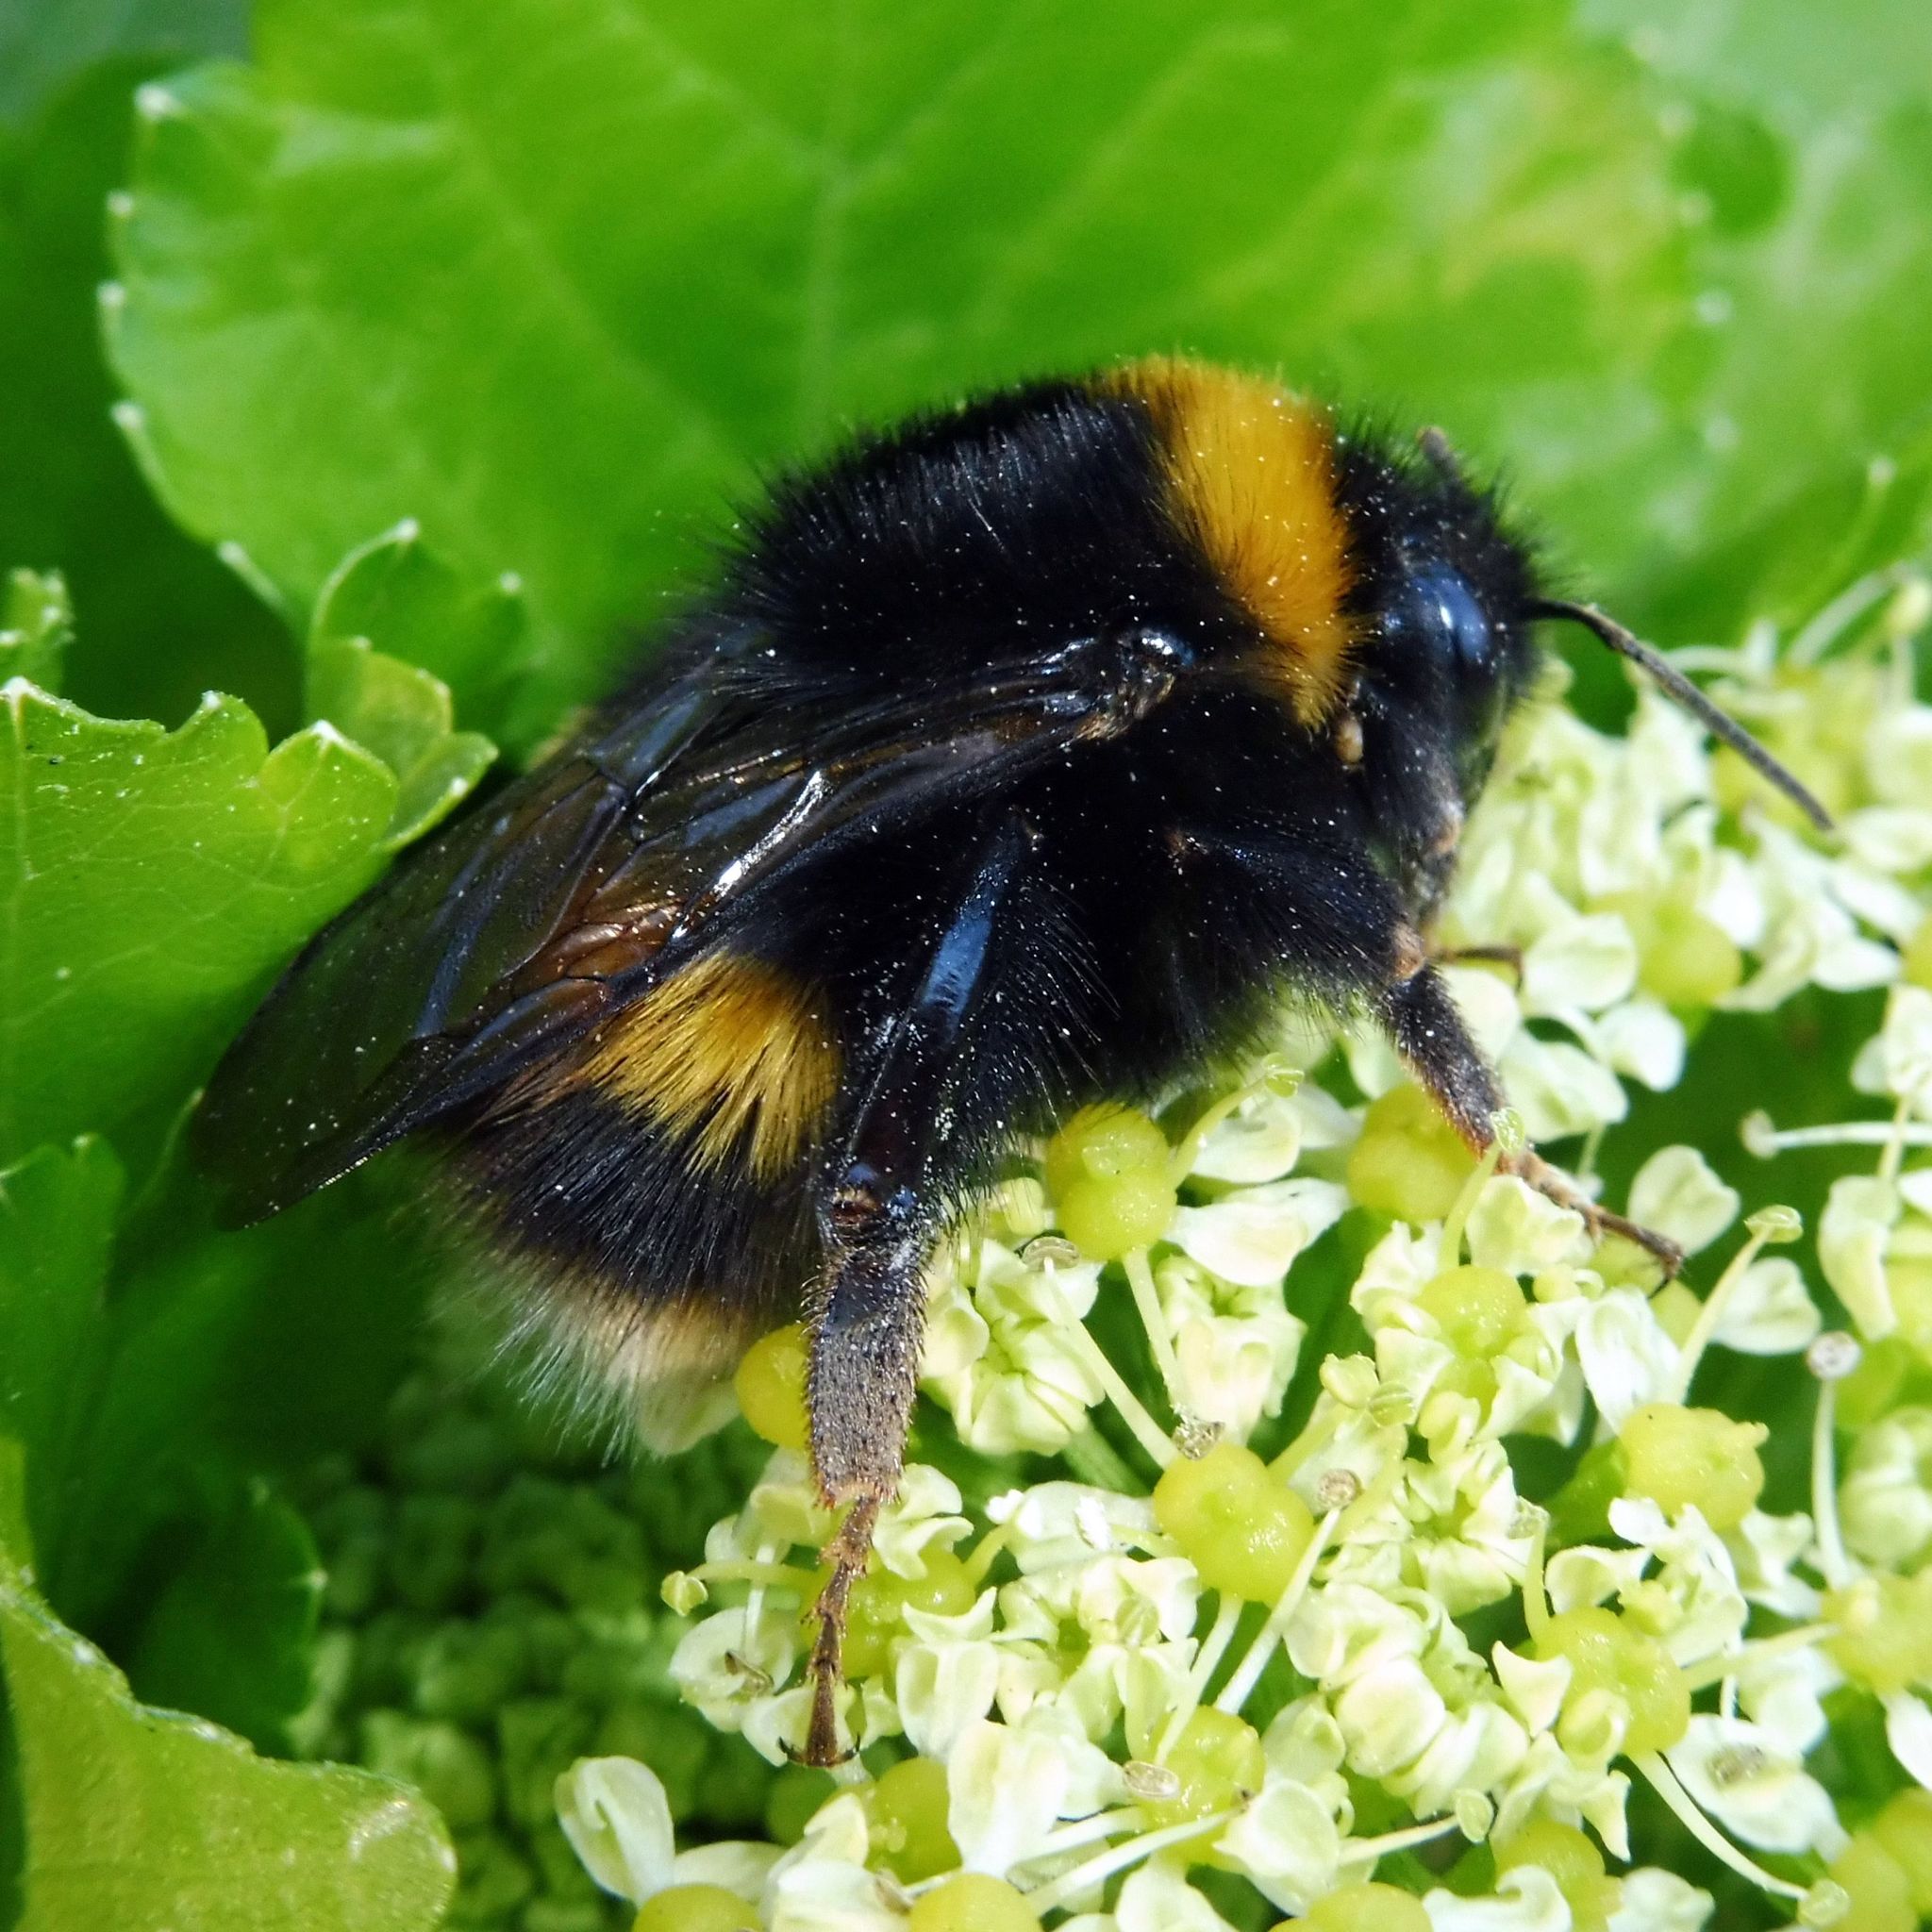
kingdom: Animalia
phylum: Arthropoda
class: Insecta
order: Hymenoptera
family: Apidae
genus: Bombus
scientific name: Bombus terrestris
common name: Buff-tailed bumblebee
